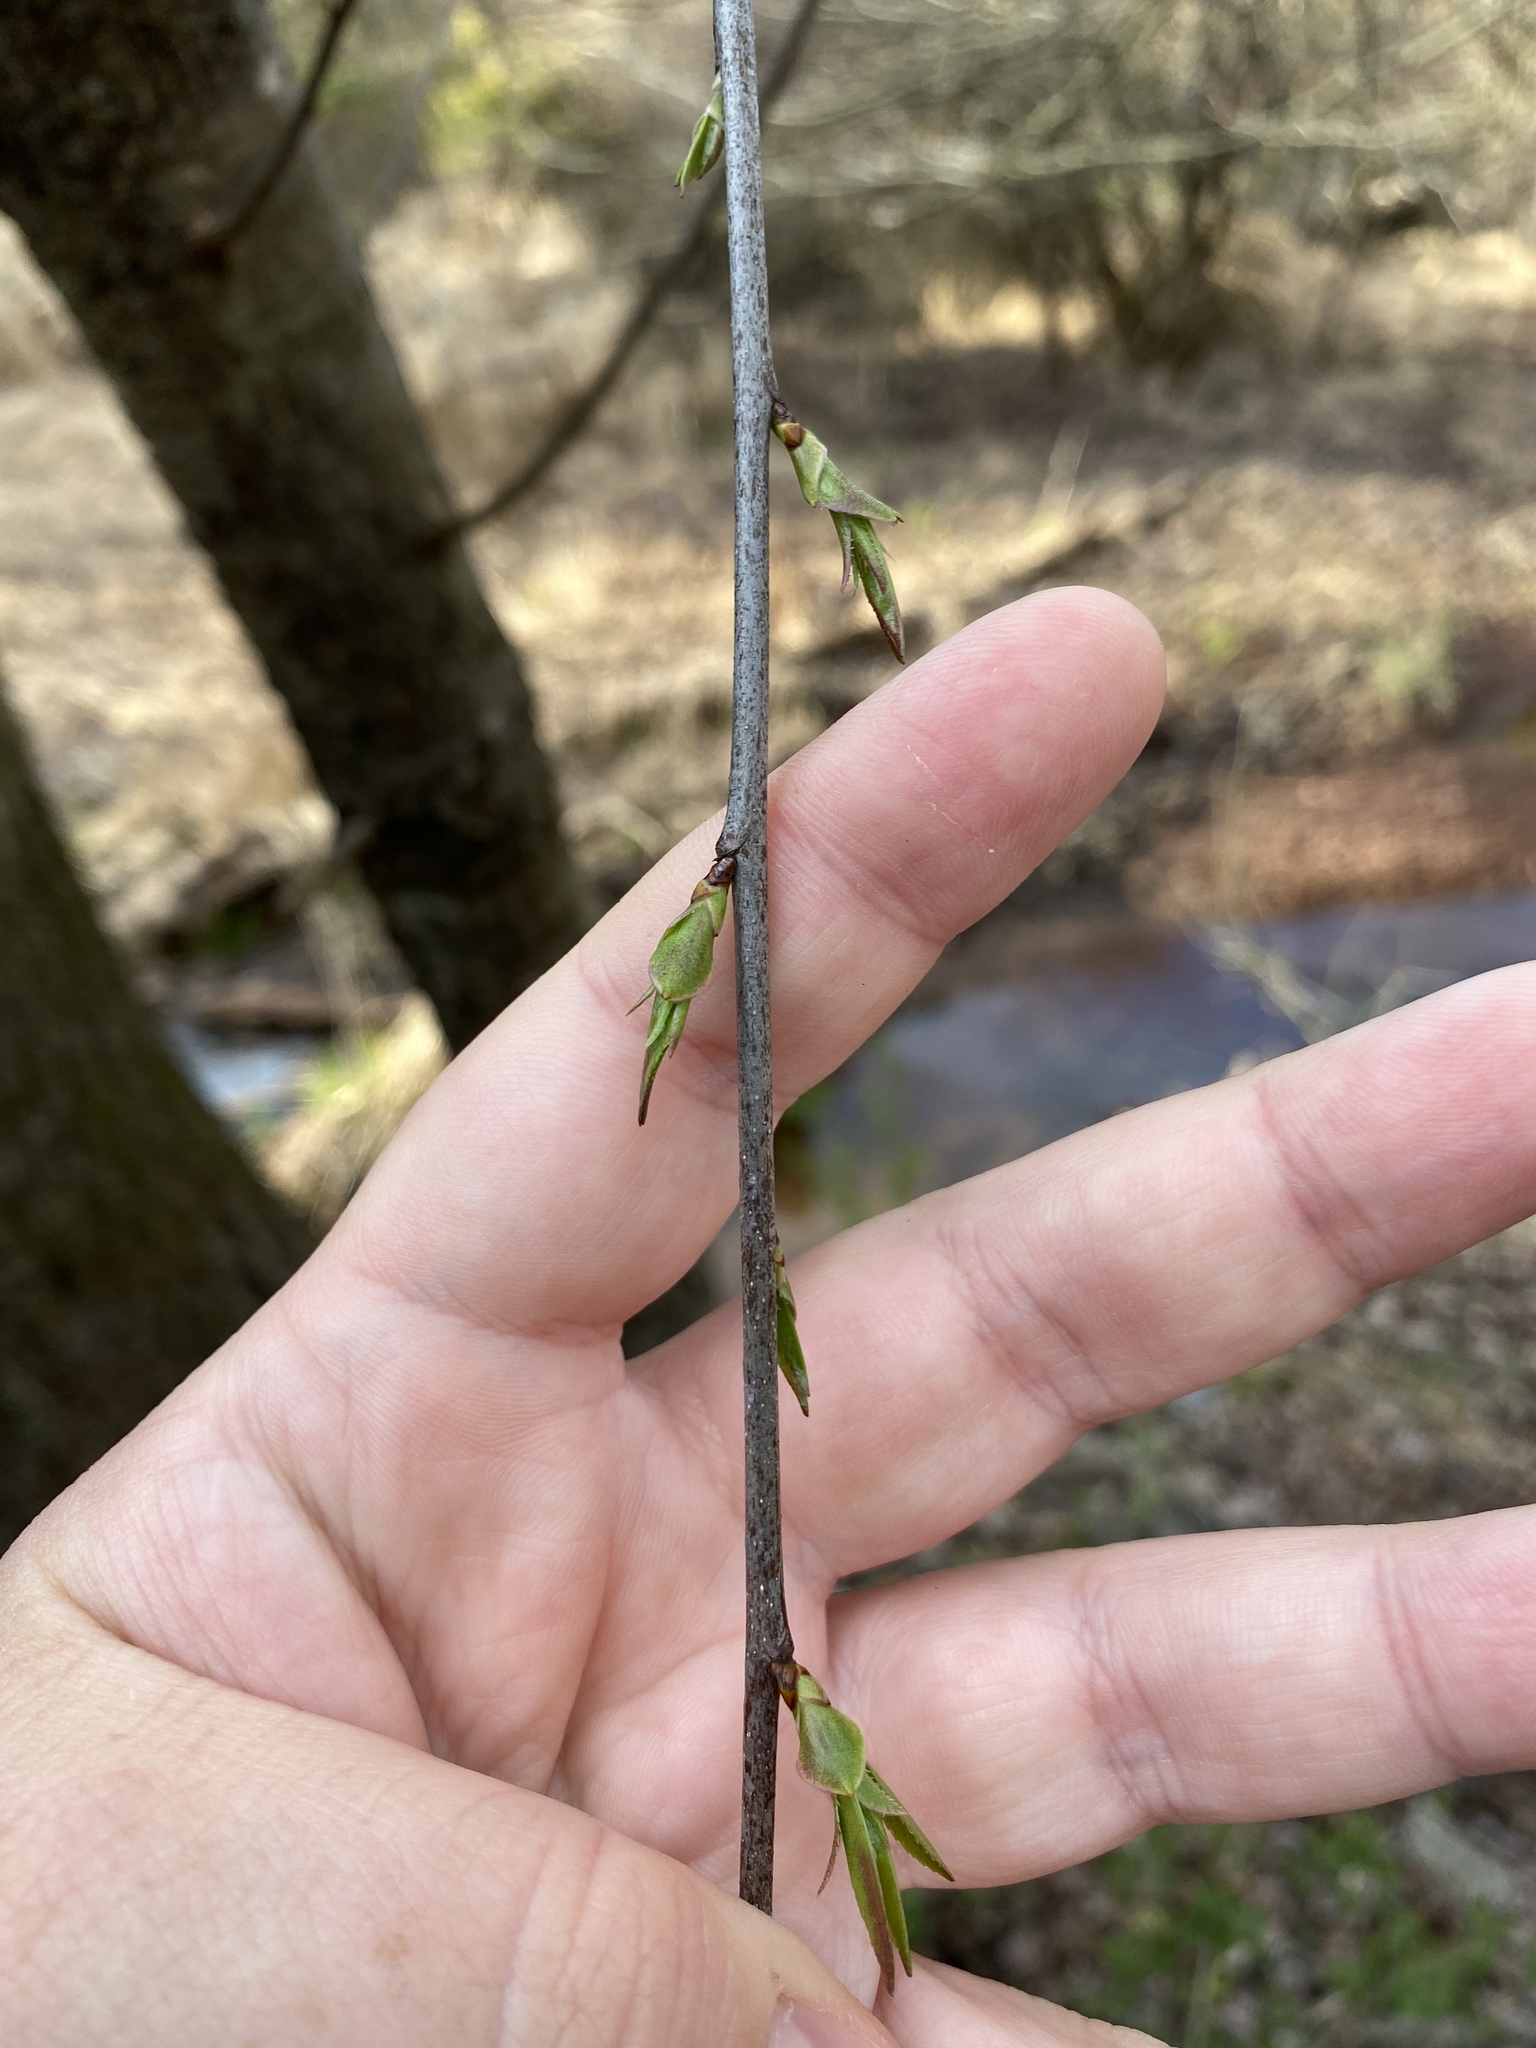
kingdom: Plantae
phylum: Tracheophyta
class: Magnoliopsida
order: Rosales
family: Rosaceae
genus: Prunus
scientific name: Prunus serotina
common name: Black cherry
